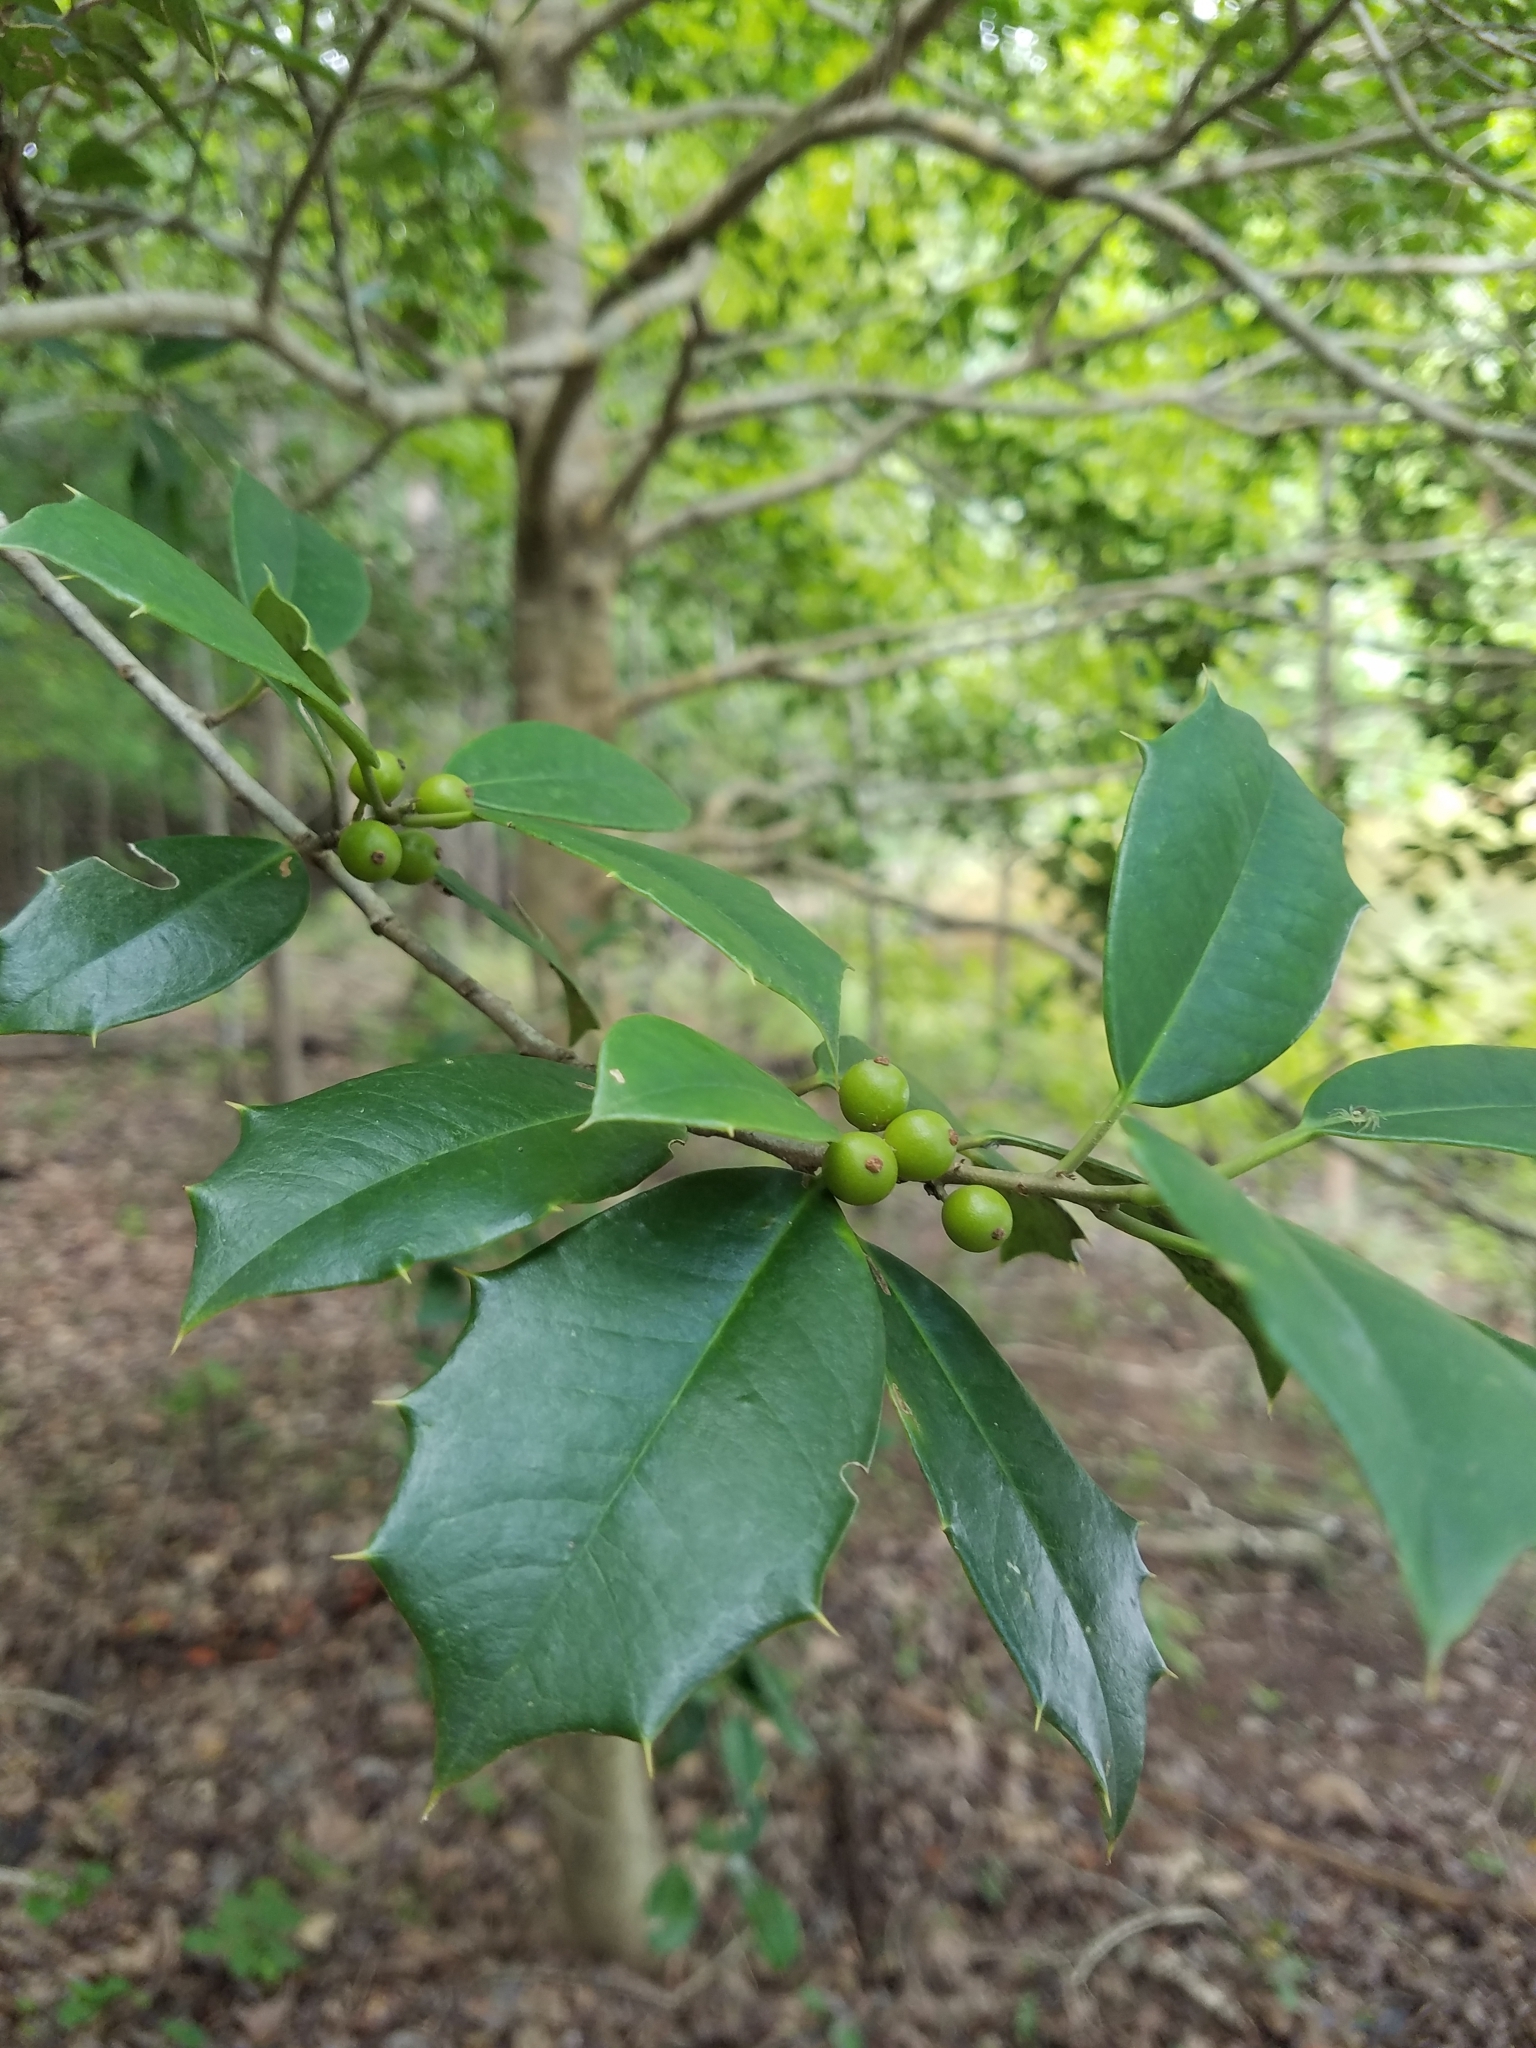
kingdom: Plantae
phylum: Tracheophyta
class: Magnoliopsida
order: Aquifoliales
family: Aquifoliaceae
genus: Ilex
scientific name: Ilex opaca
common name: American holly
